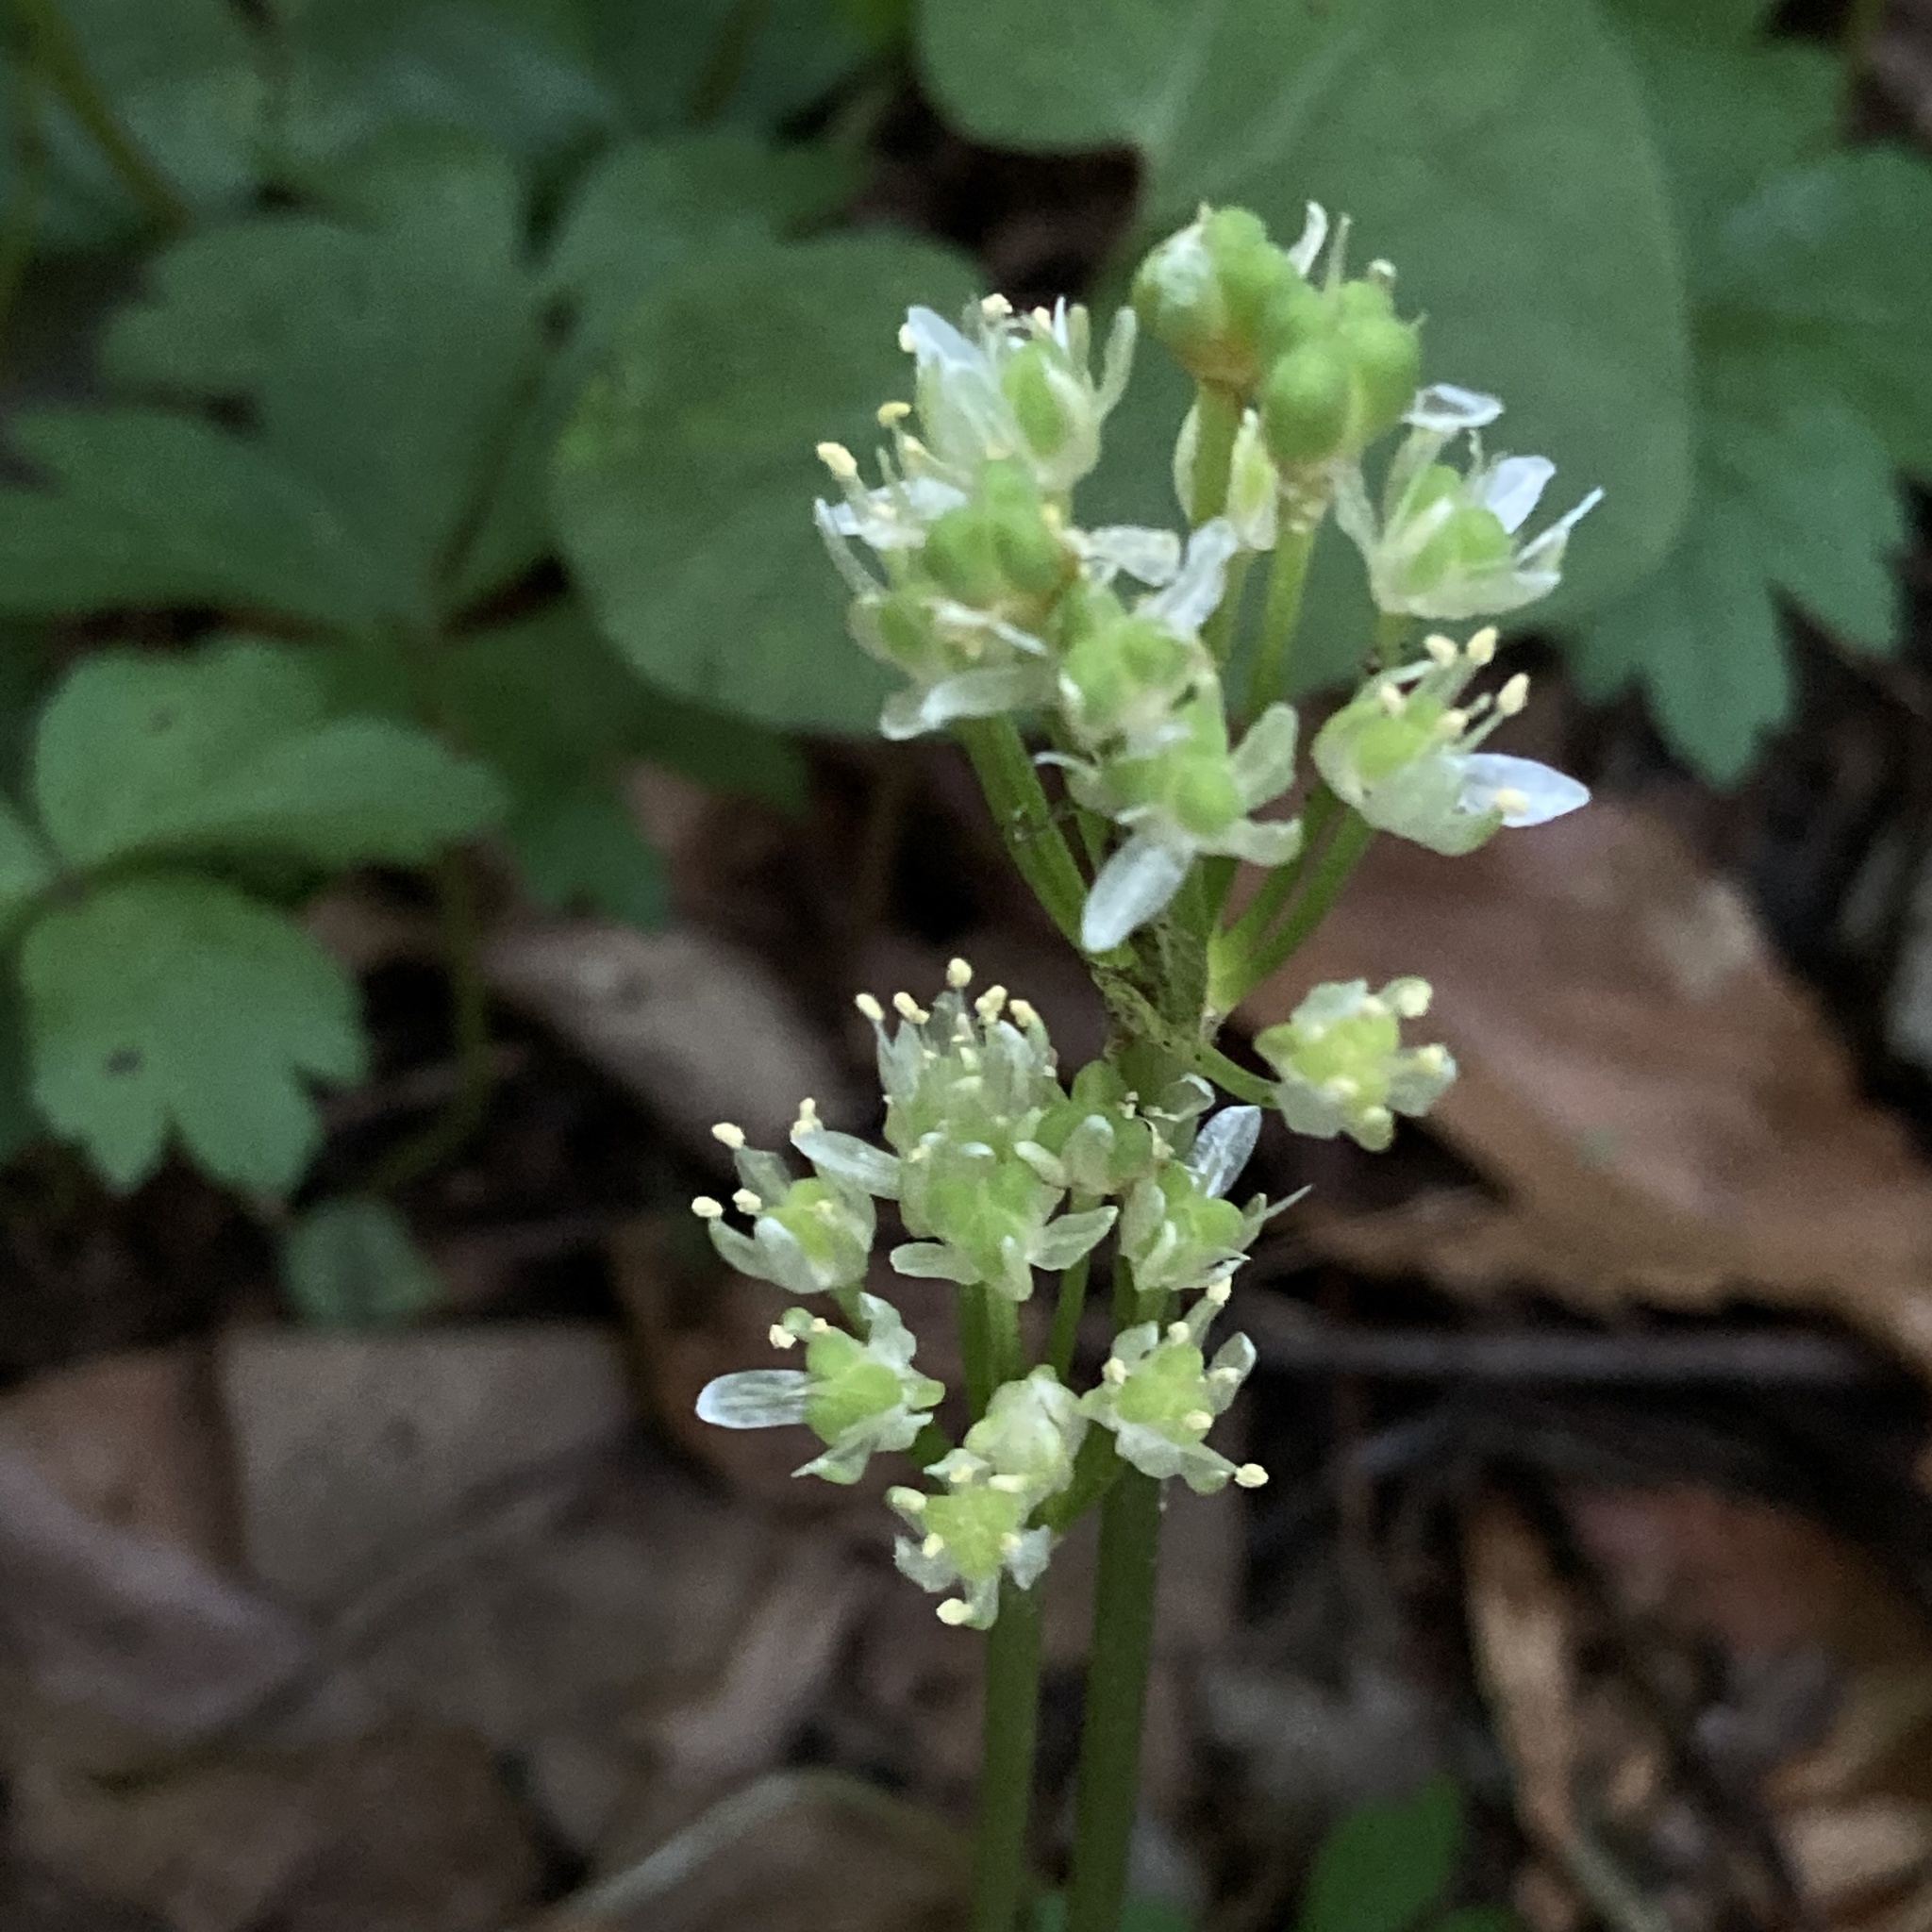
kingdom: Plantae
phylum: Tracheophyta
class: Liliopsida
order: Asparagales
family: Amaryllidaceae
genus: Allium
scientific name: Allium tricoccum
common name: Ramp
